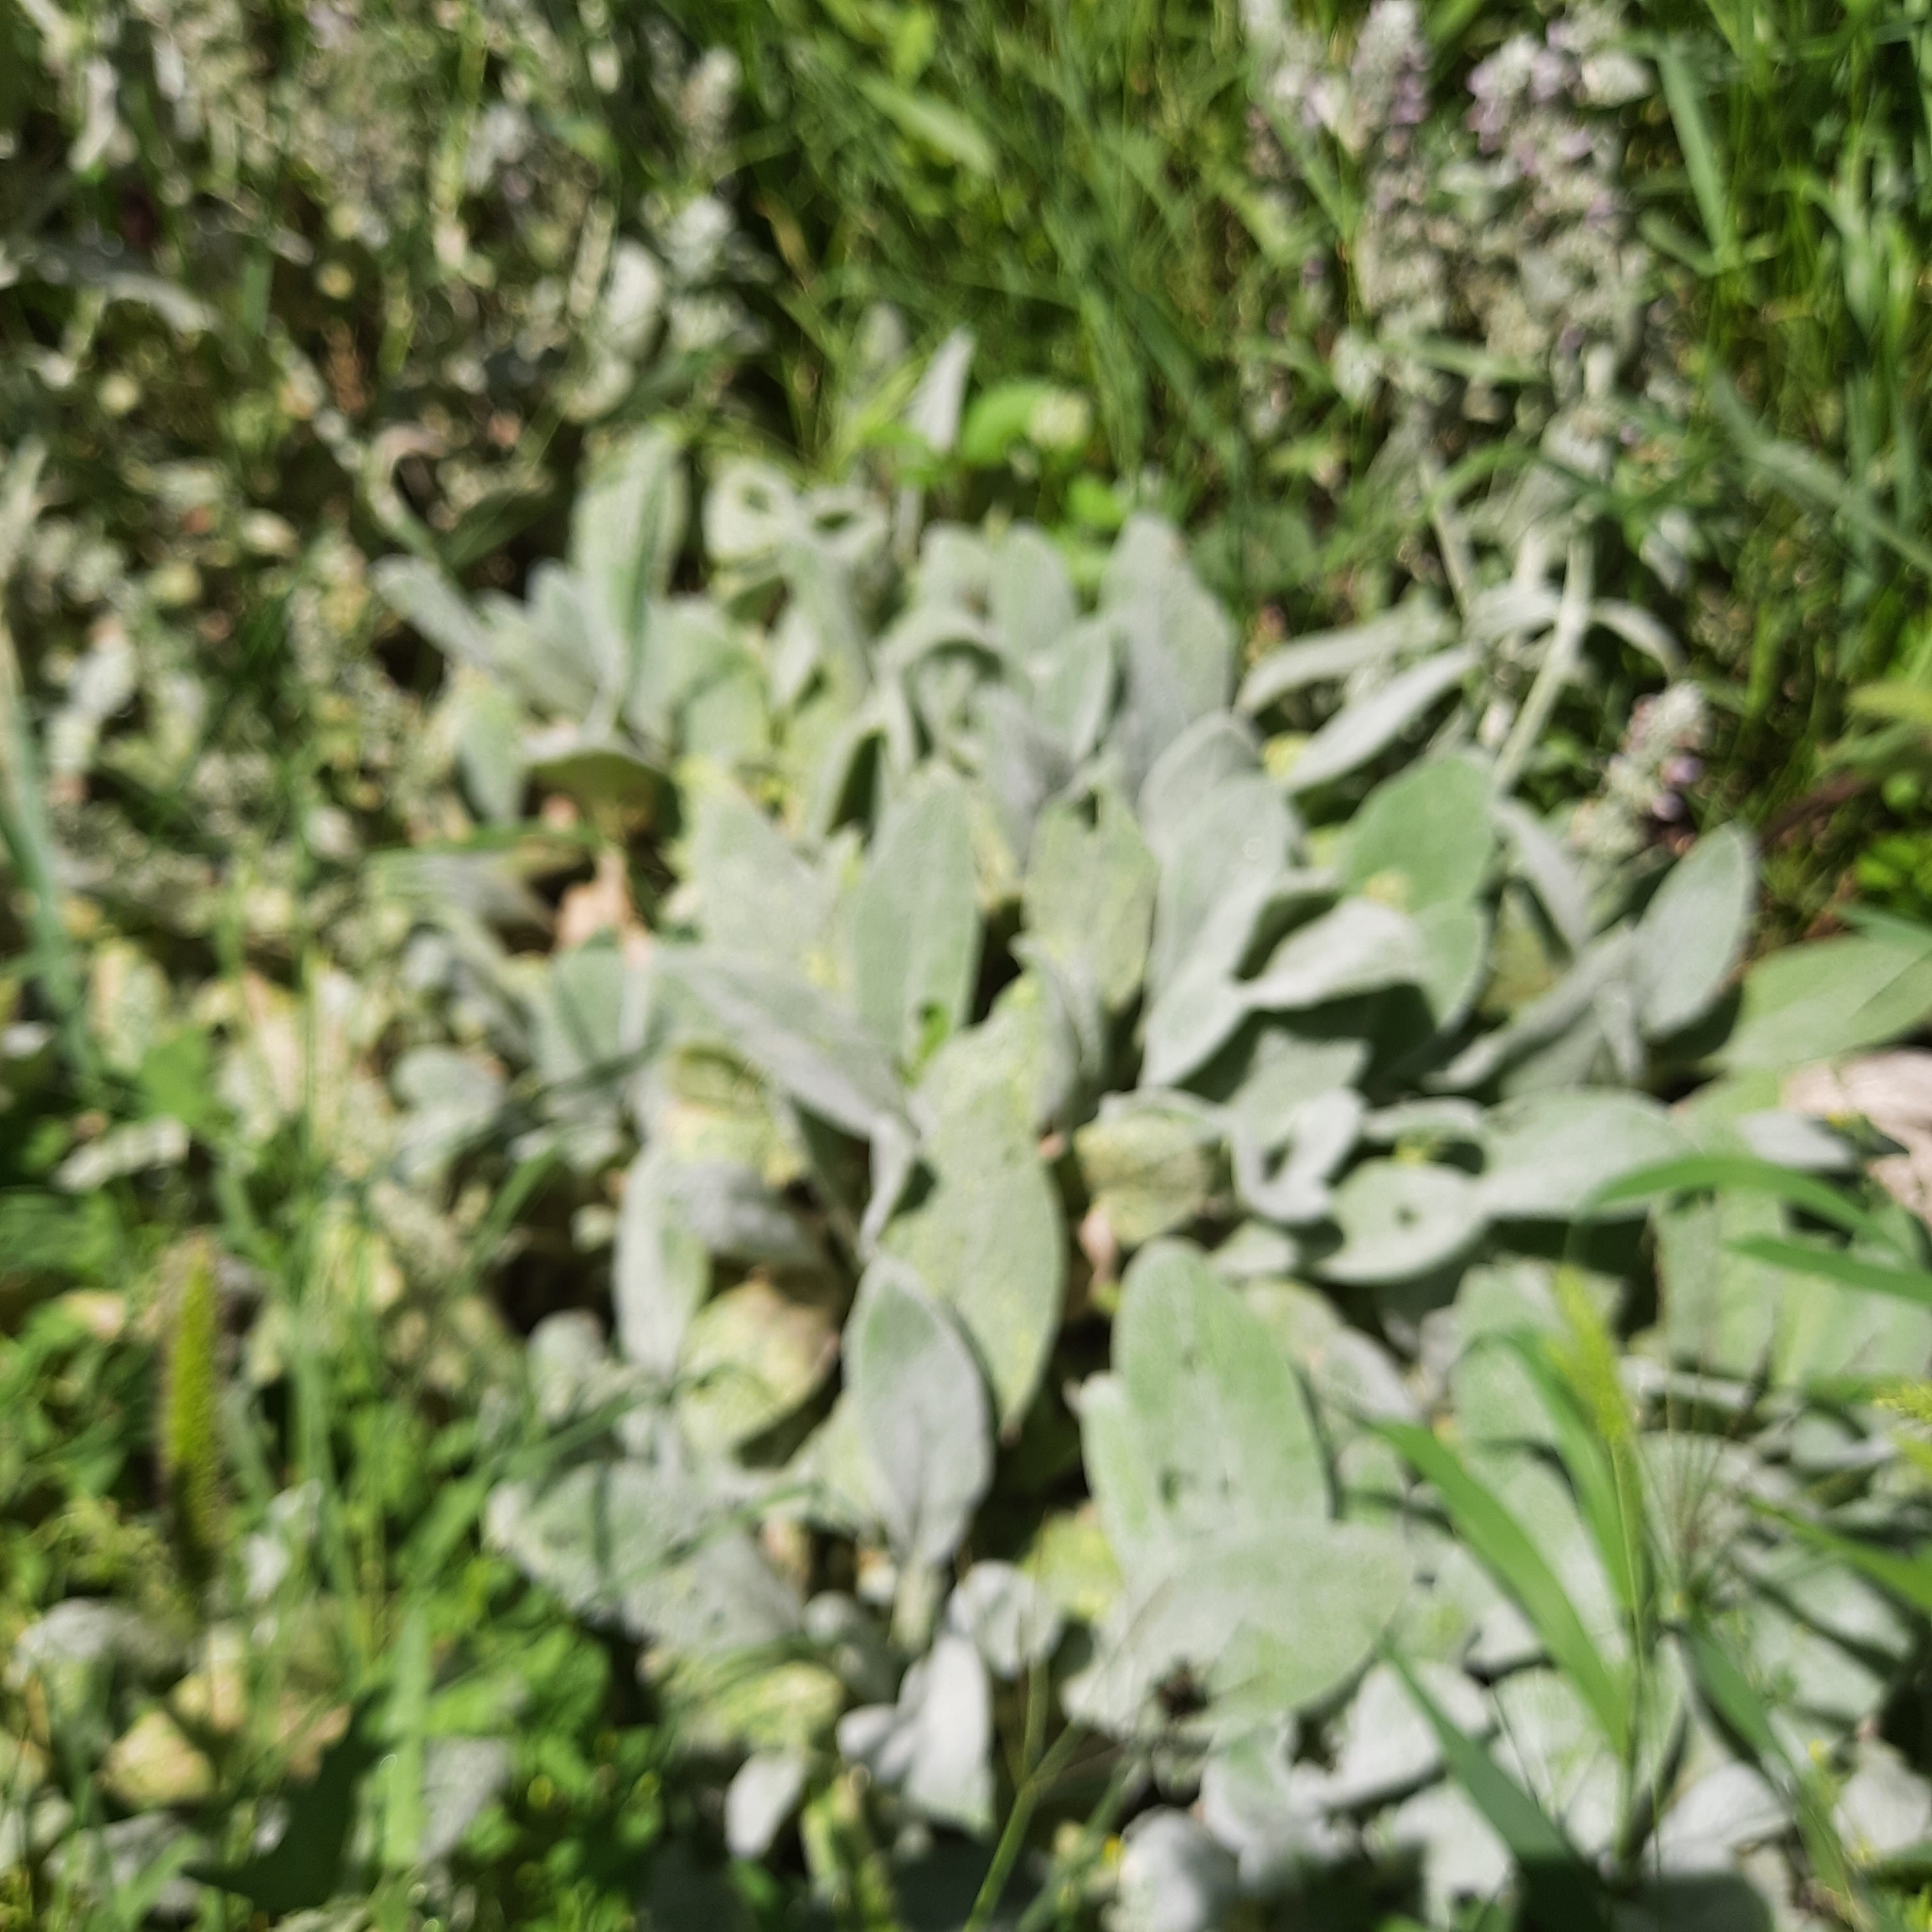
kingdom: Plantae
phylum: Tracheophyta
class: Magnoliopsida
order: Lamiales
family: Lamiaceae
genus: Stachys
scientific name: Stachys byzantina
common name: Lamb's-ear
